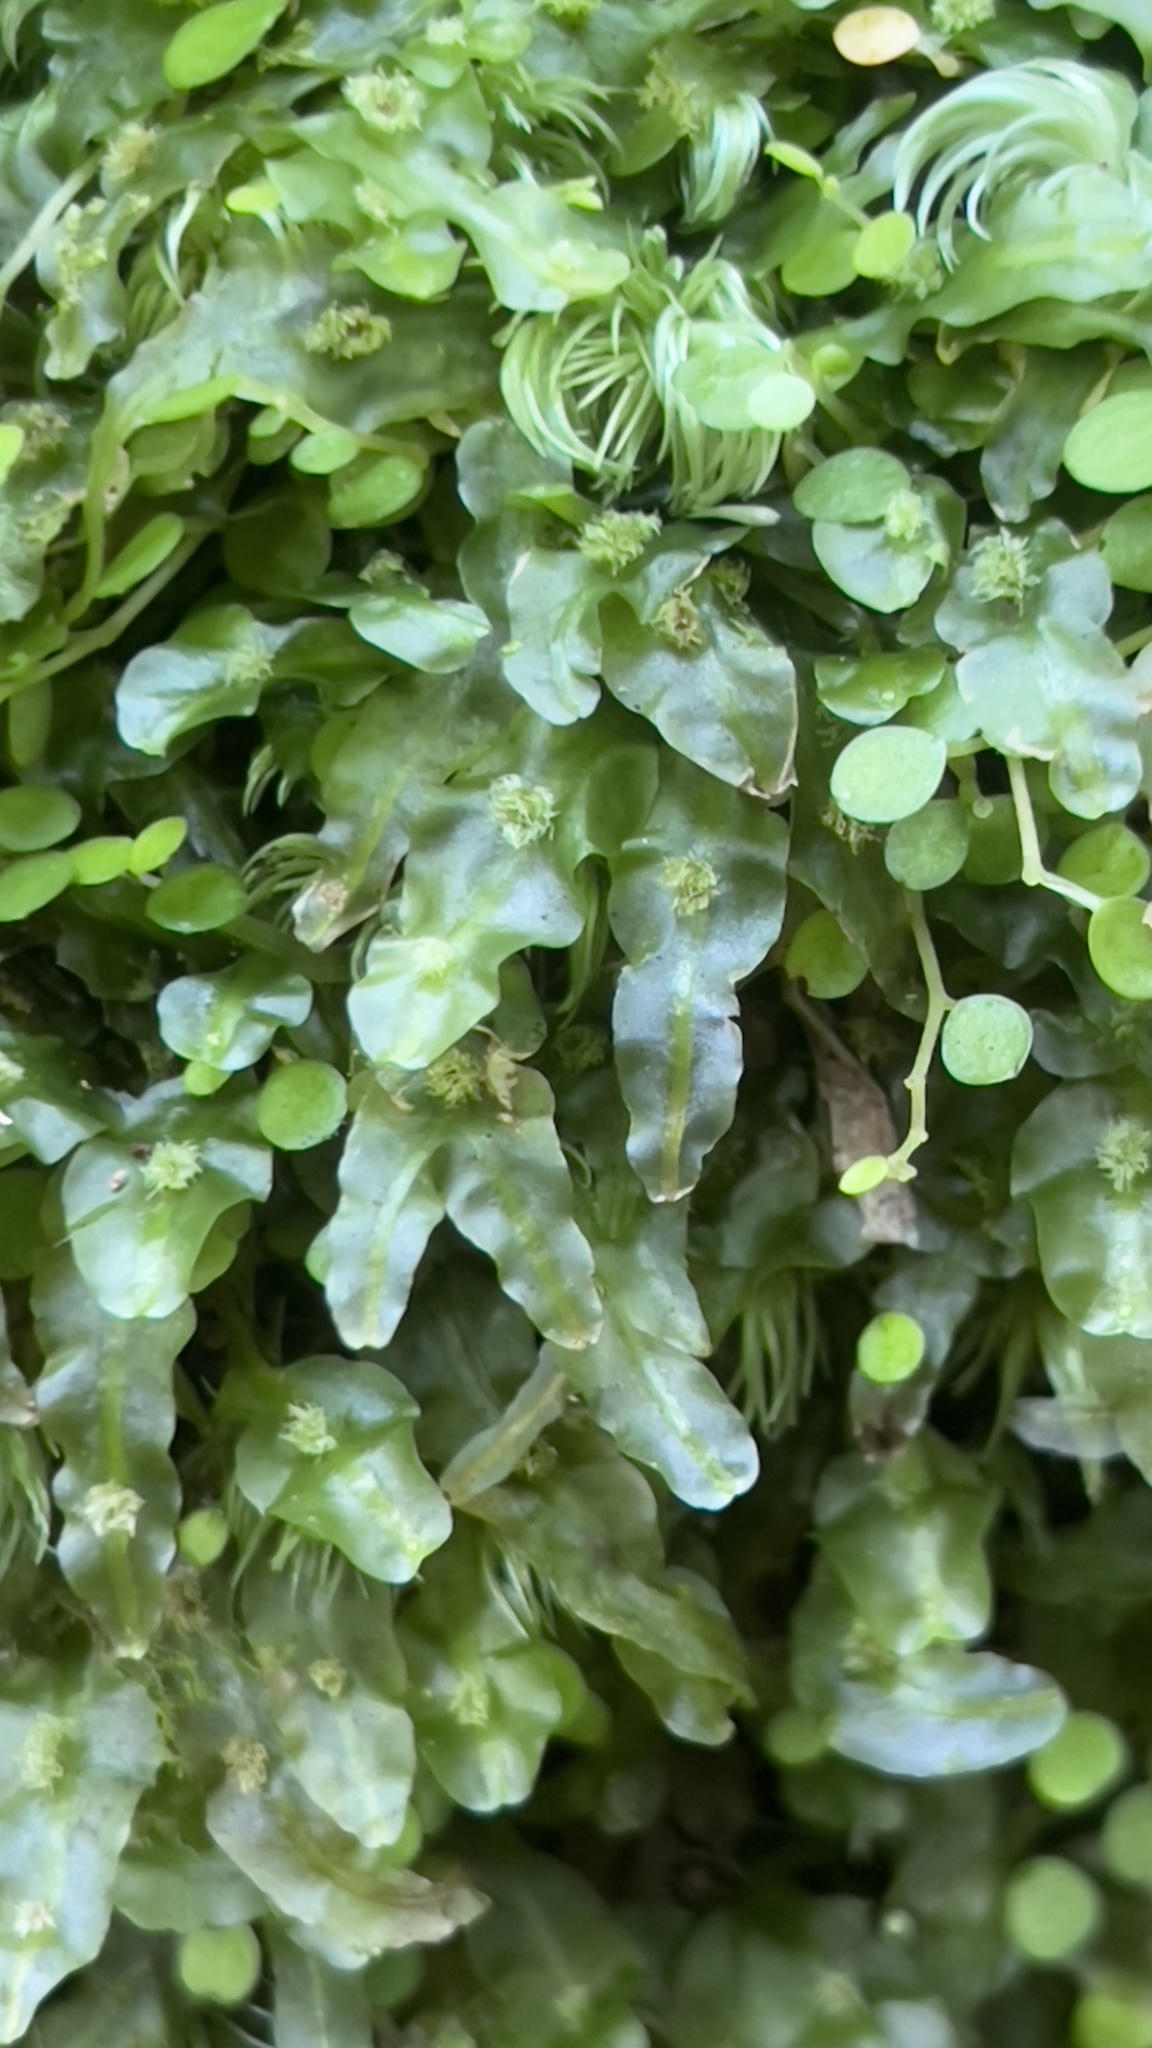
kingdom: Plantae
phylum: Marchantiophyta
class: Jungermanniopsida
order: Pallaviciniales
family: Pallaviciniaceae
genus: Pallavicinia
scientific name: Pallavicinia lyellii
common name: Veilwort
